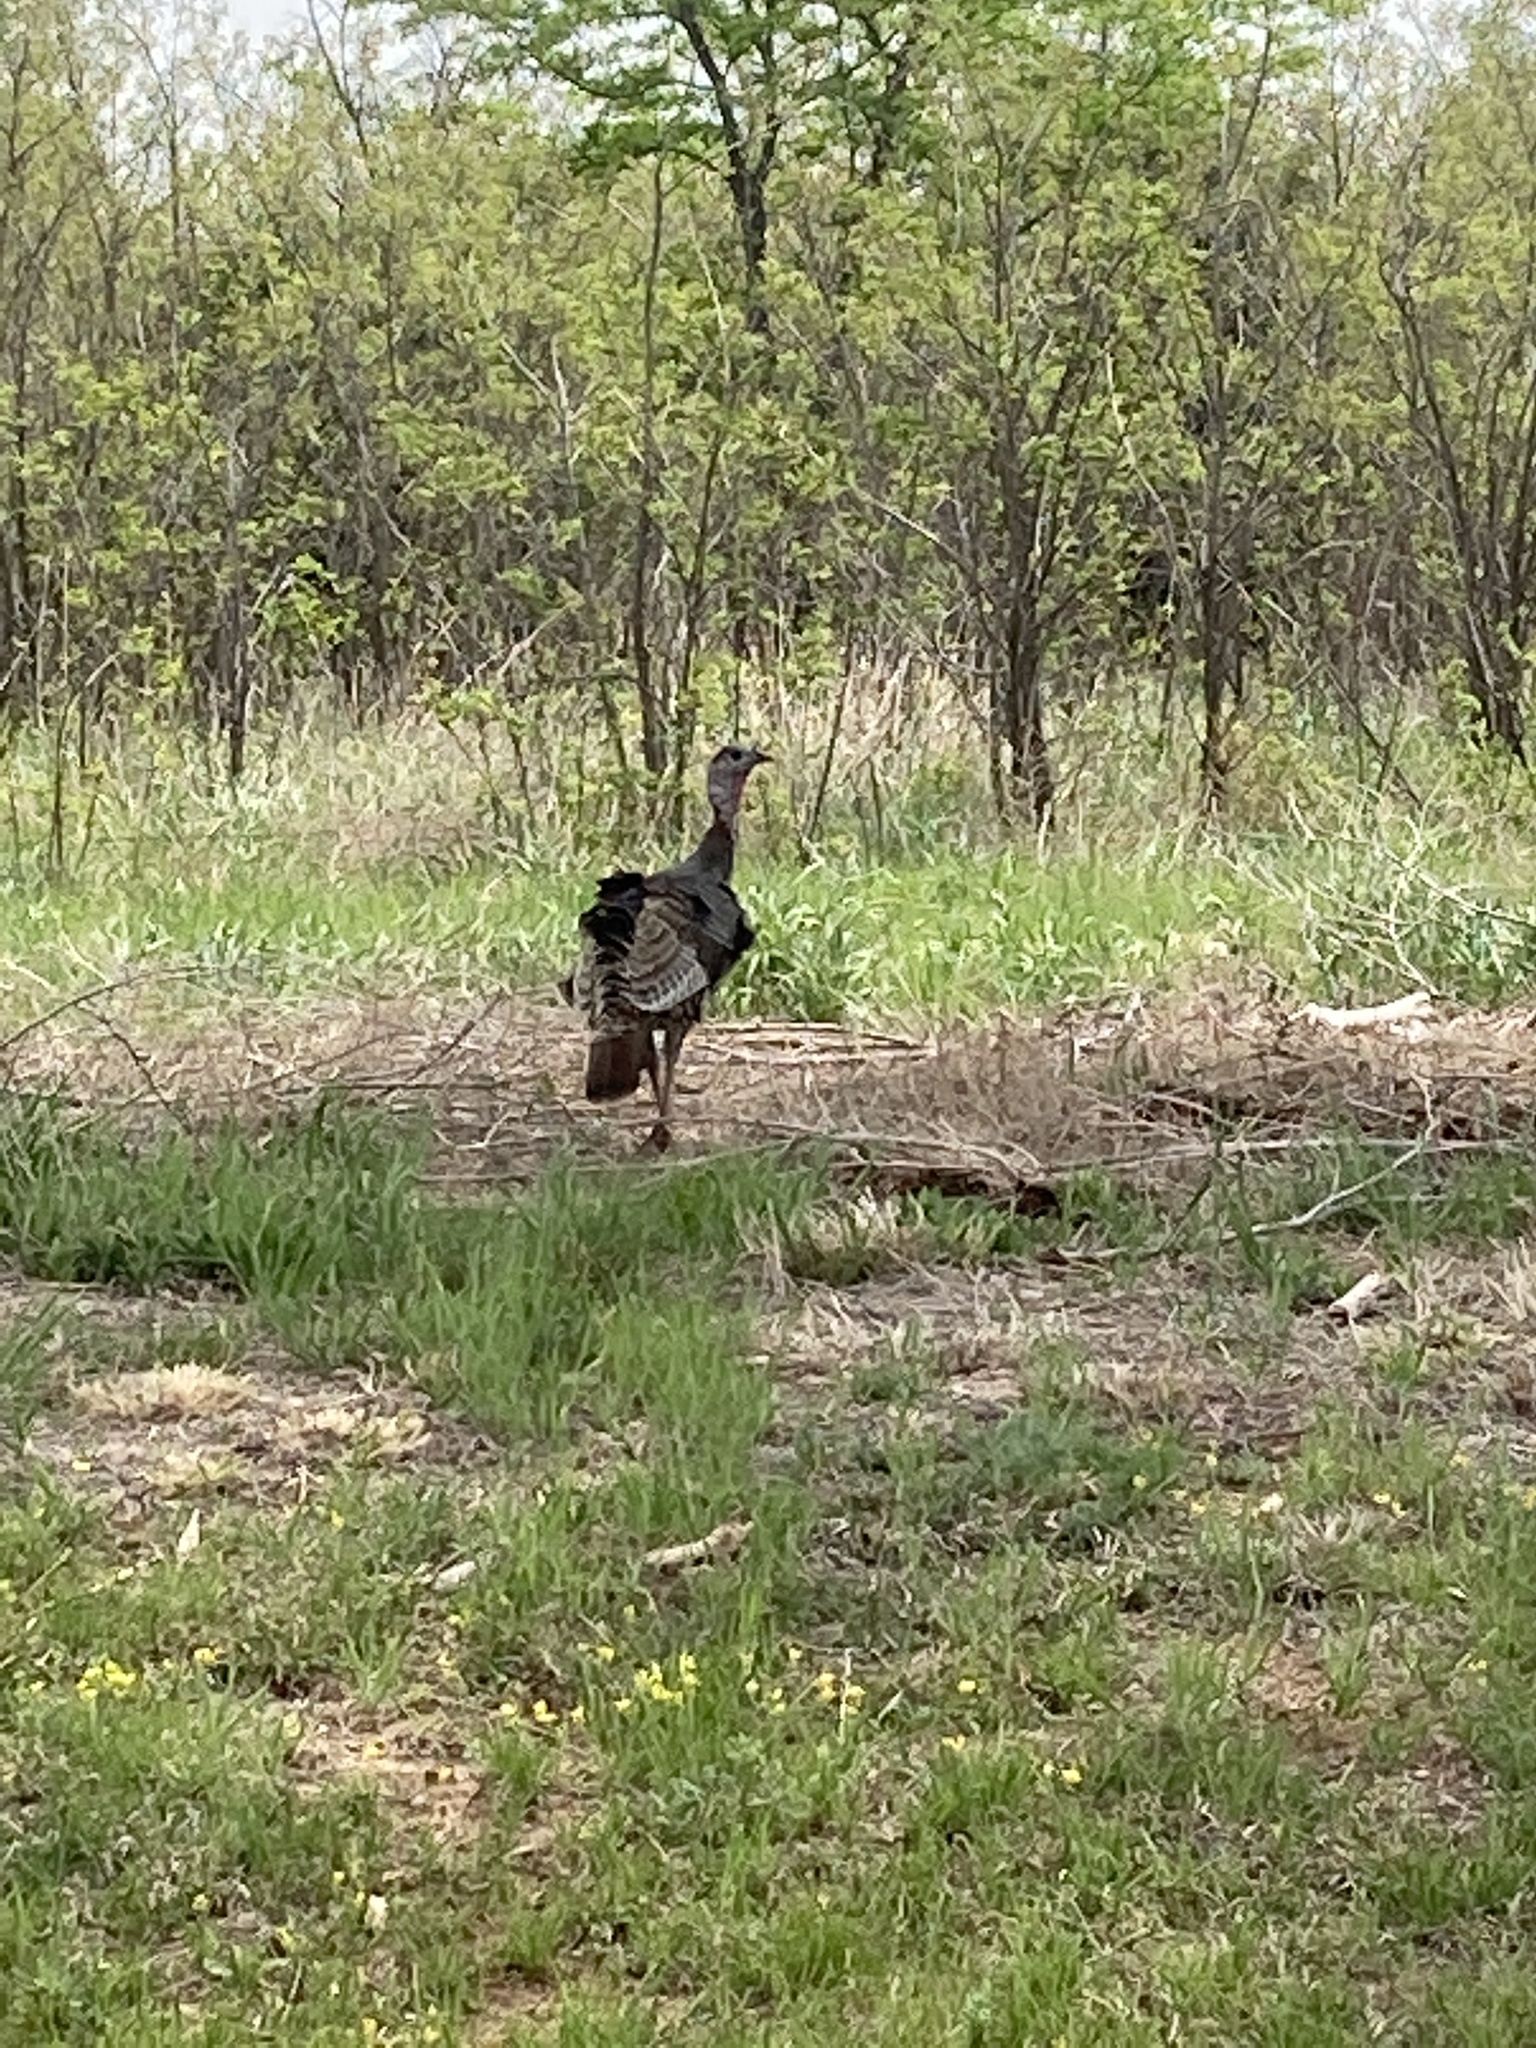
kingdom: Animalia
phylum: Chordata
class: Aves
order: Galliformes
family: Phasianidae
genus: Meleagris
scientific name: Meleagris gallopavo
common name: Wild turkey
